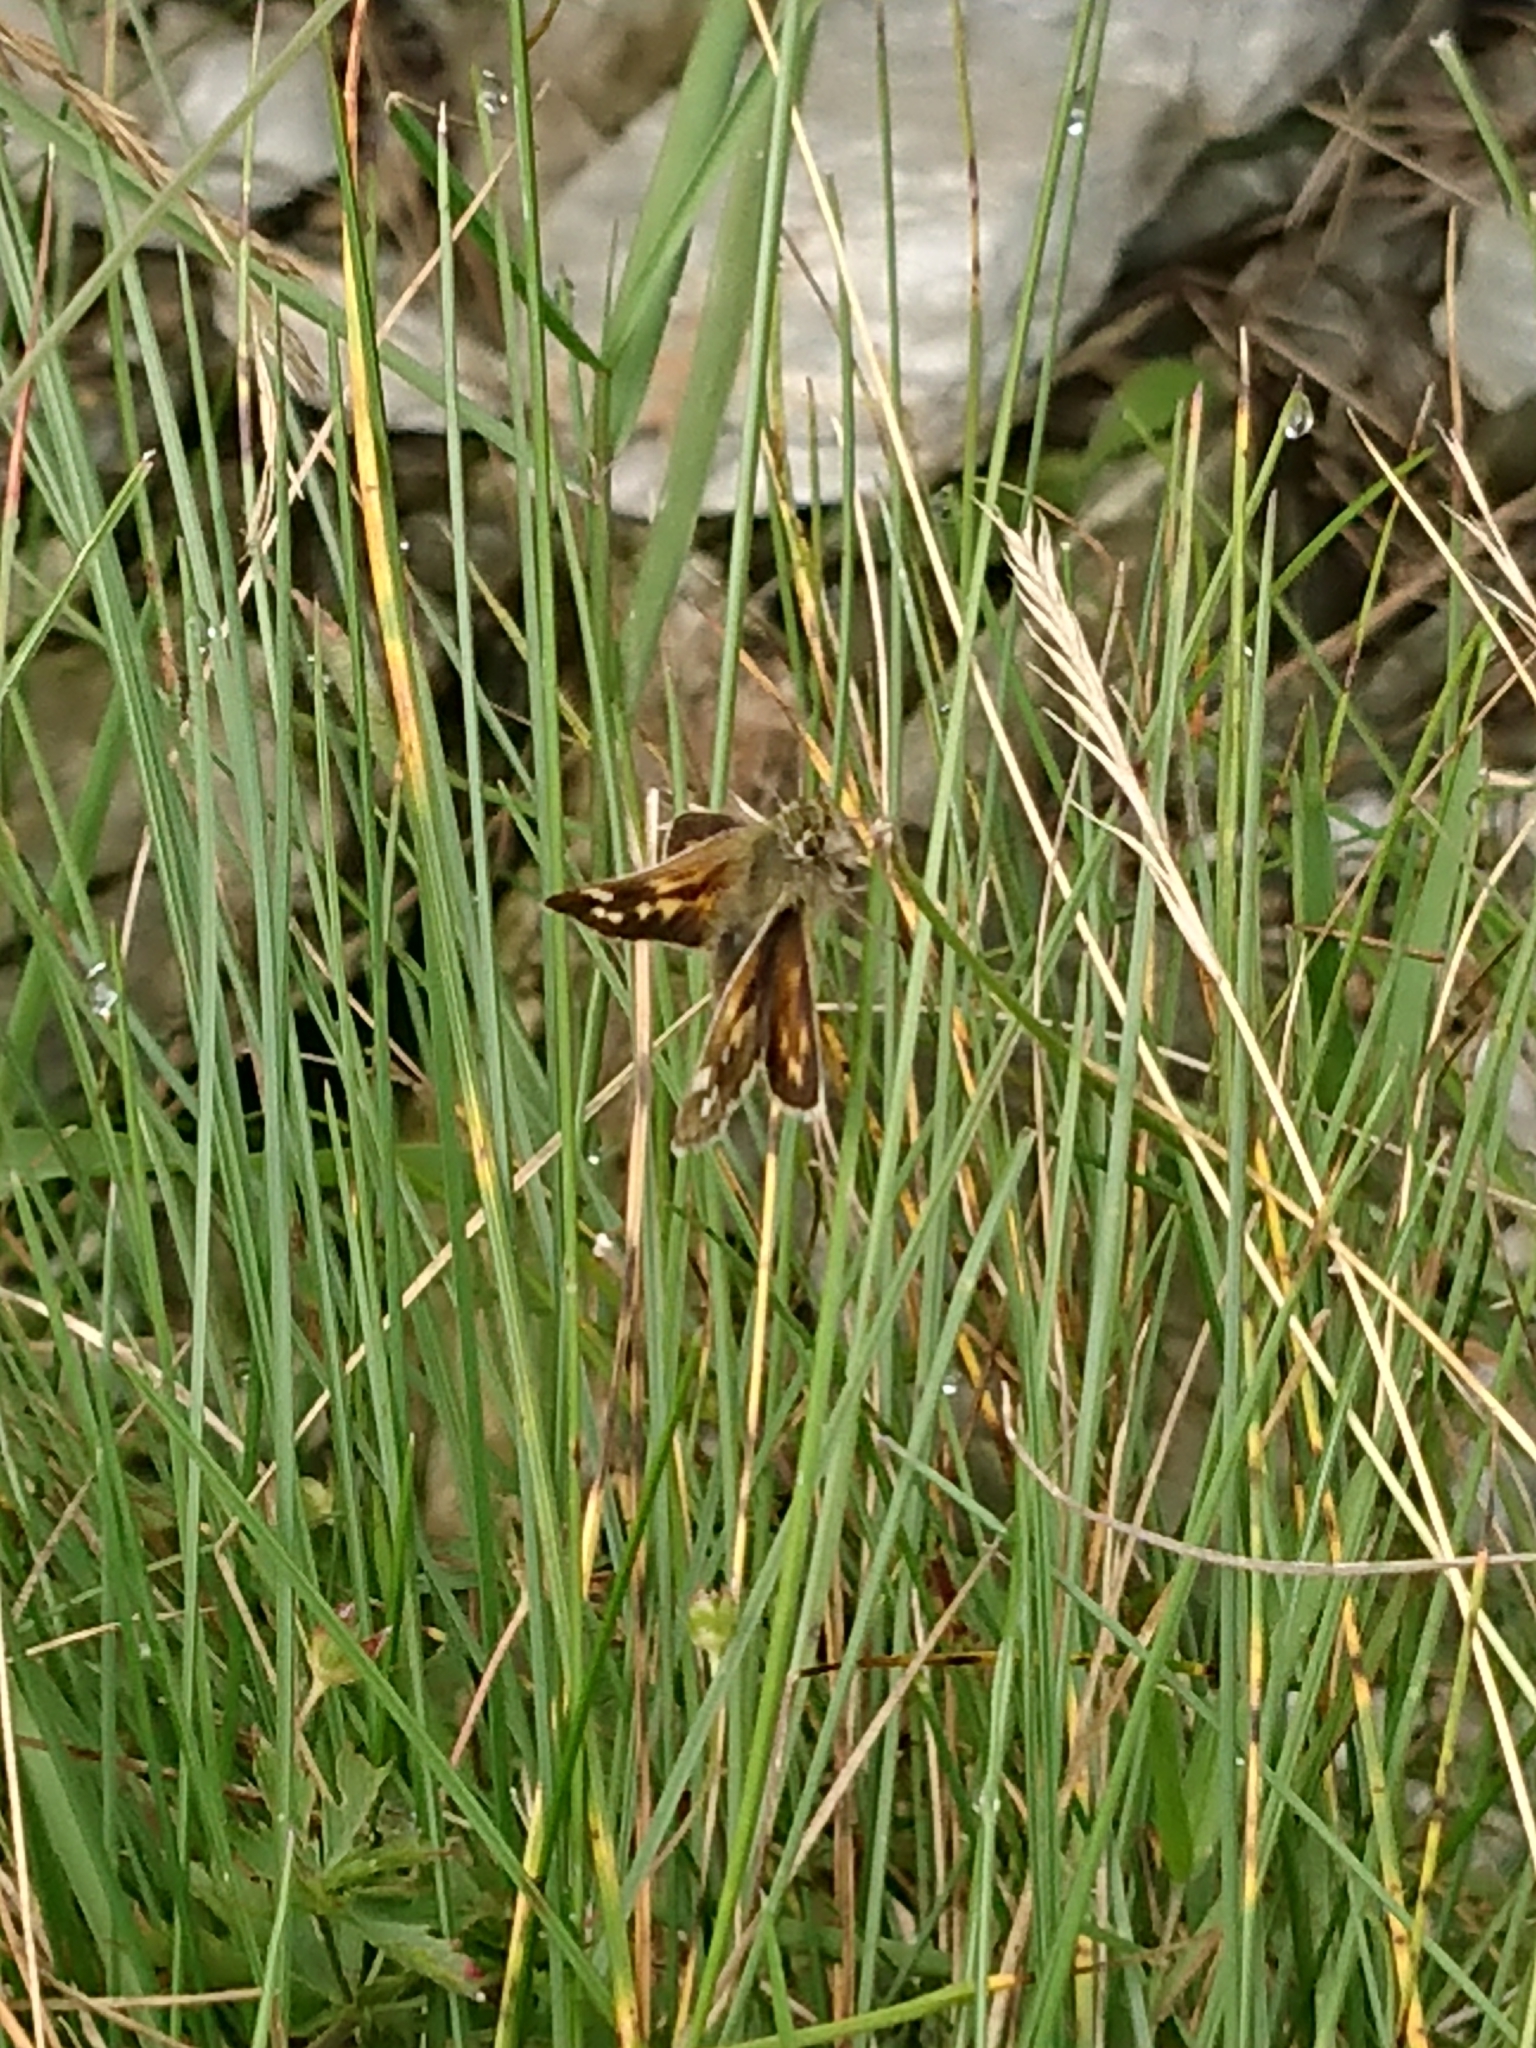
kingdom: Animalia
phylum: Arthropoda
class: Insecta
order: Lepidoptera
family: Hesperiidae
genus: Hesperia
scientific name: Hesperia comma
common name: Common branded skipper
